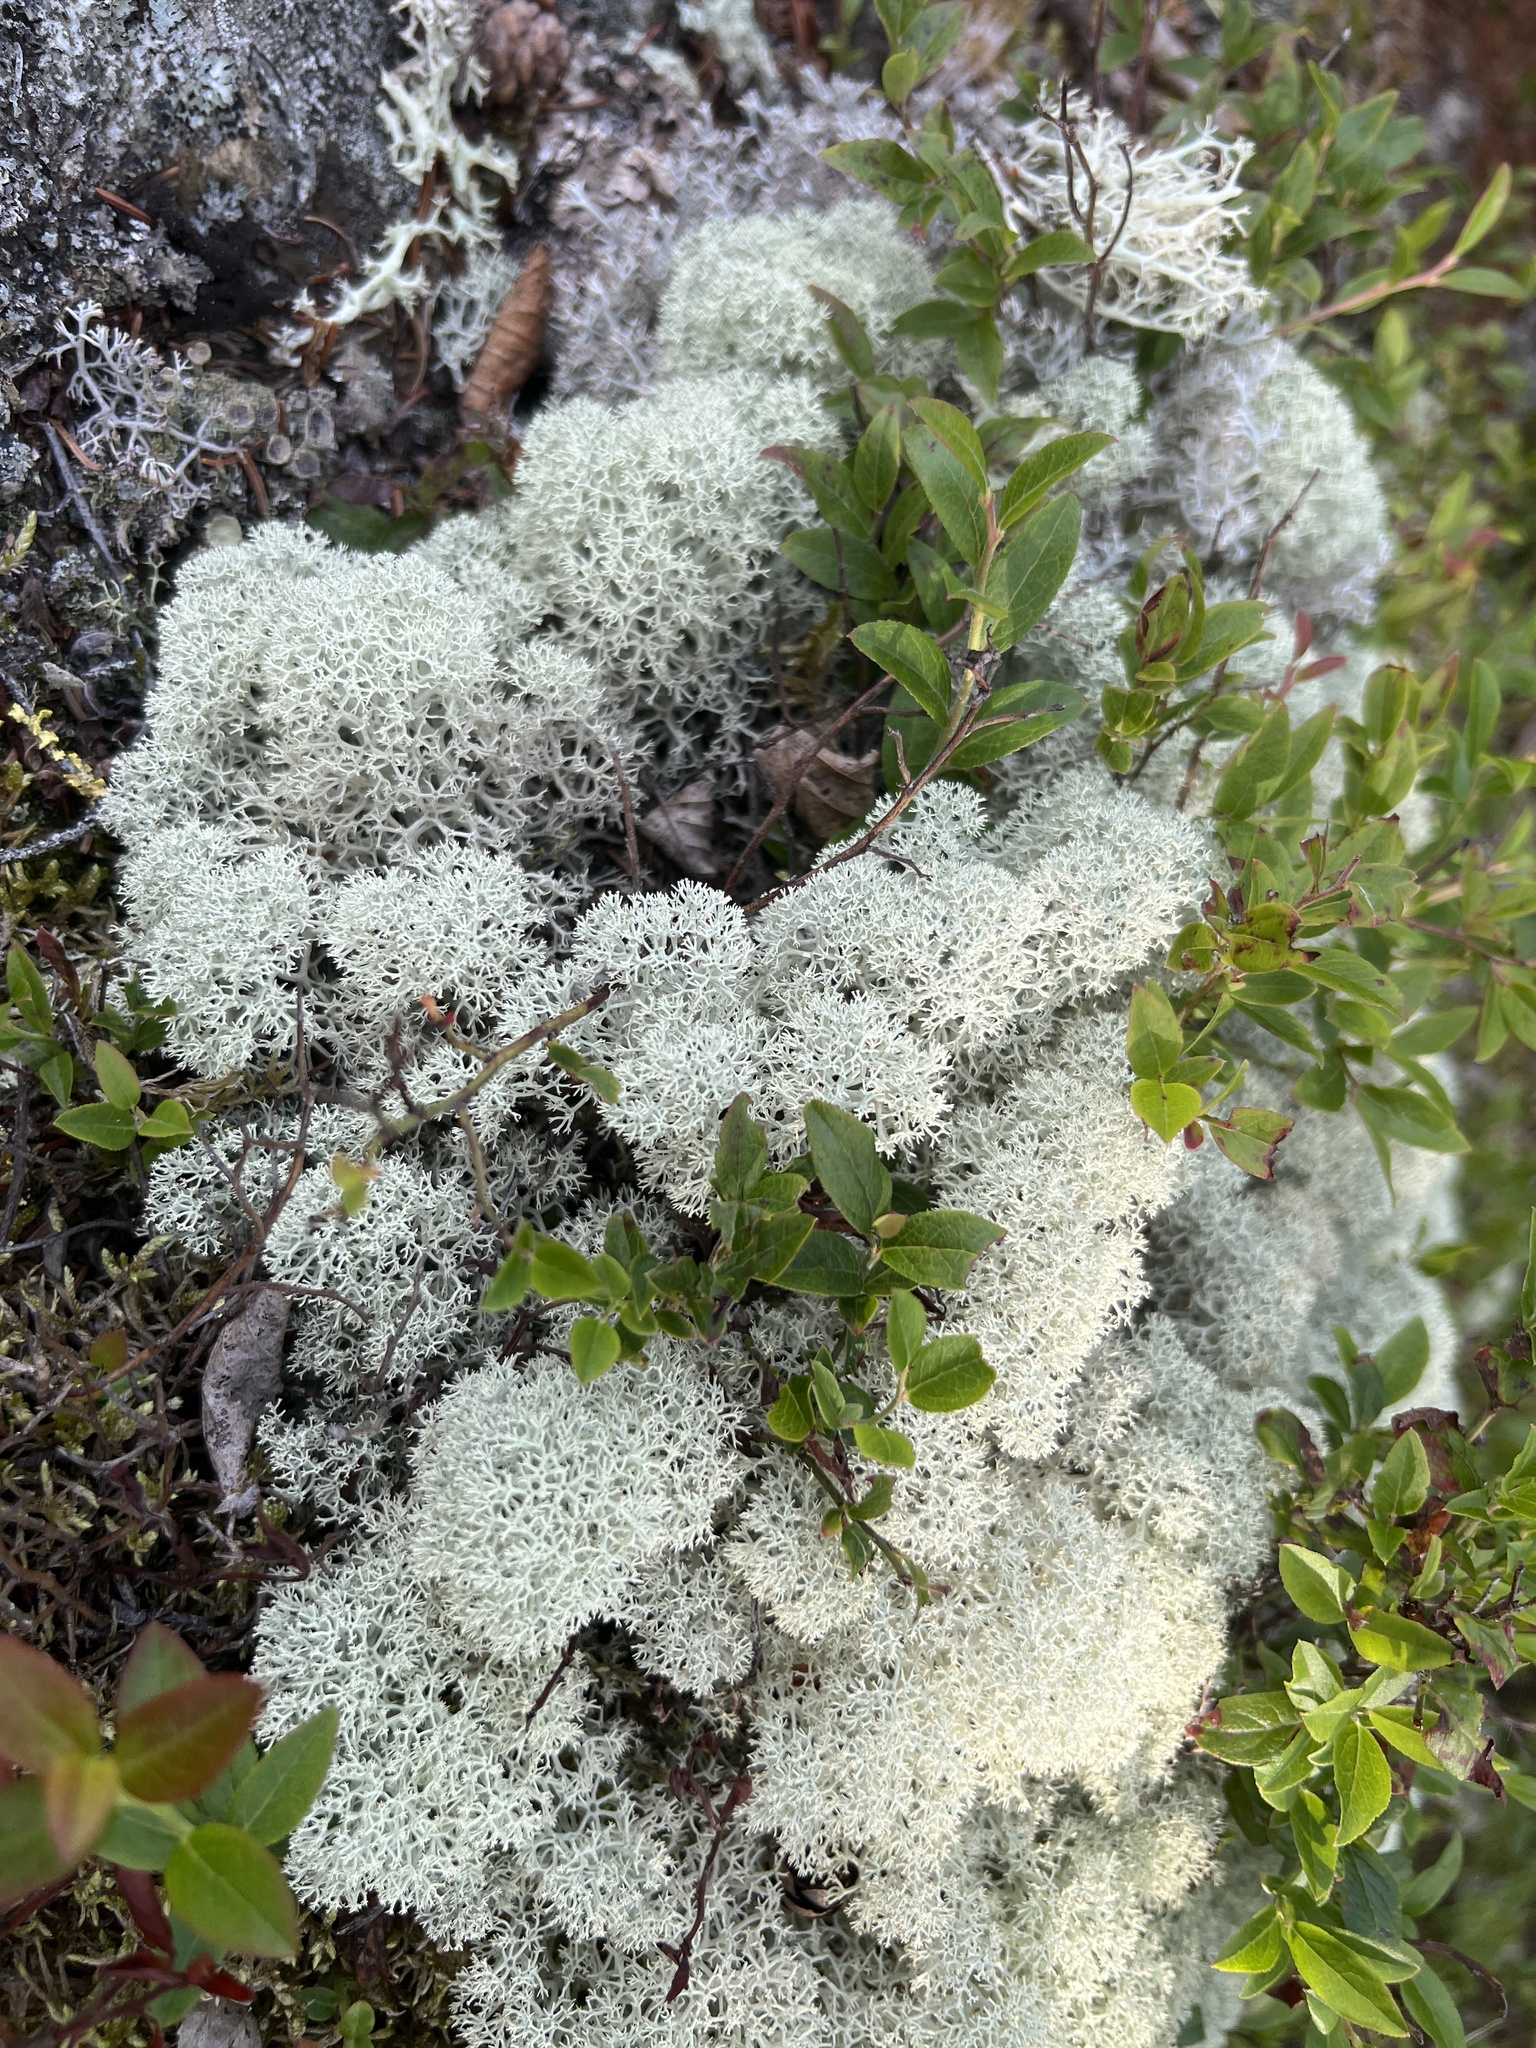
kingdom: Fungi
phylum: Ascomycota
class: Lecanoromycetes
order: Lecanorales
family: Cladoniaceae
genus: Cladonia
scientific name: Cladonia stellaris
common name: Star-tipped reindeer lichen
